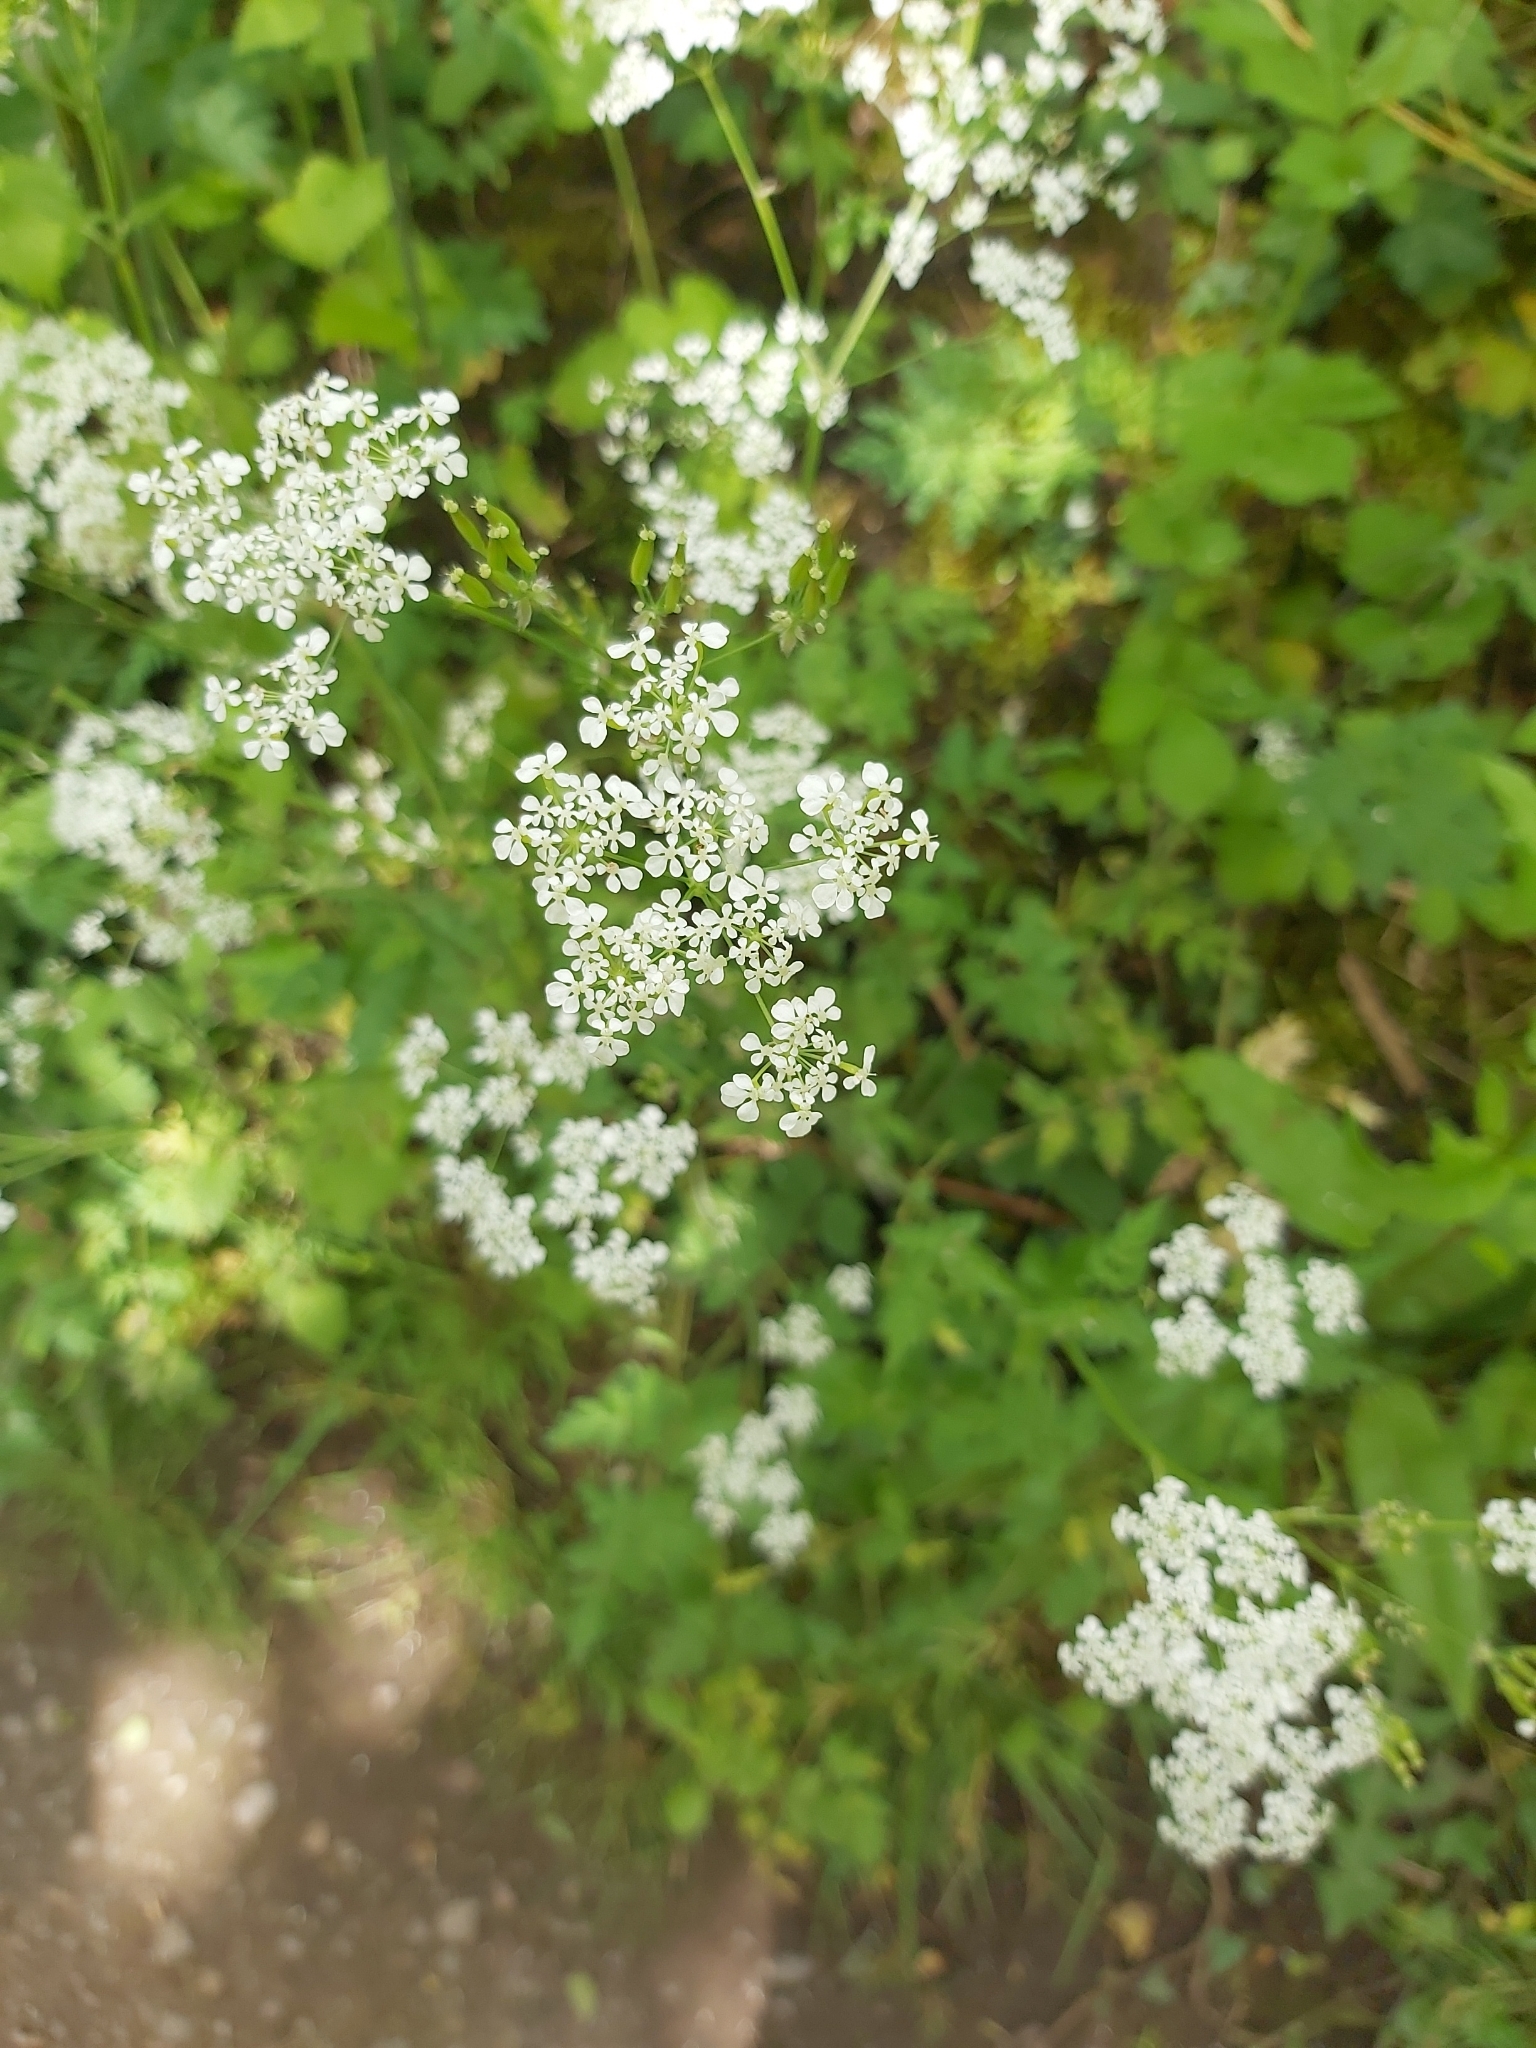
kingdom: Plantae
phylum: Tracheophyta
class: Magnoliopsida
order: Apiales
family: Apiaceae
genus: Anthriscus
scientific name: Anthriscus sylvestris
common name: Cow parsley
